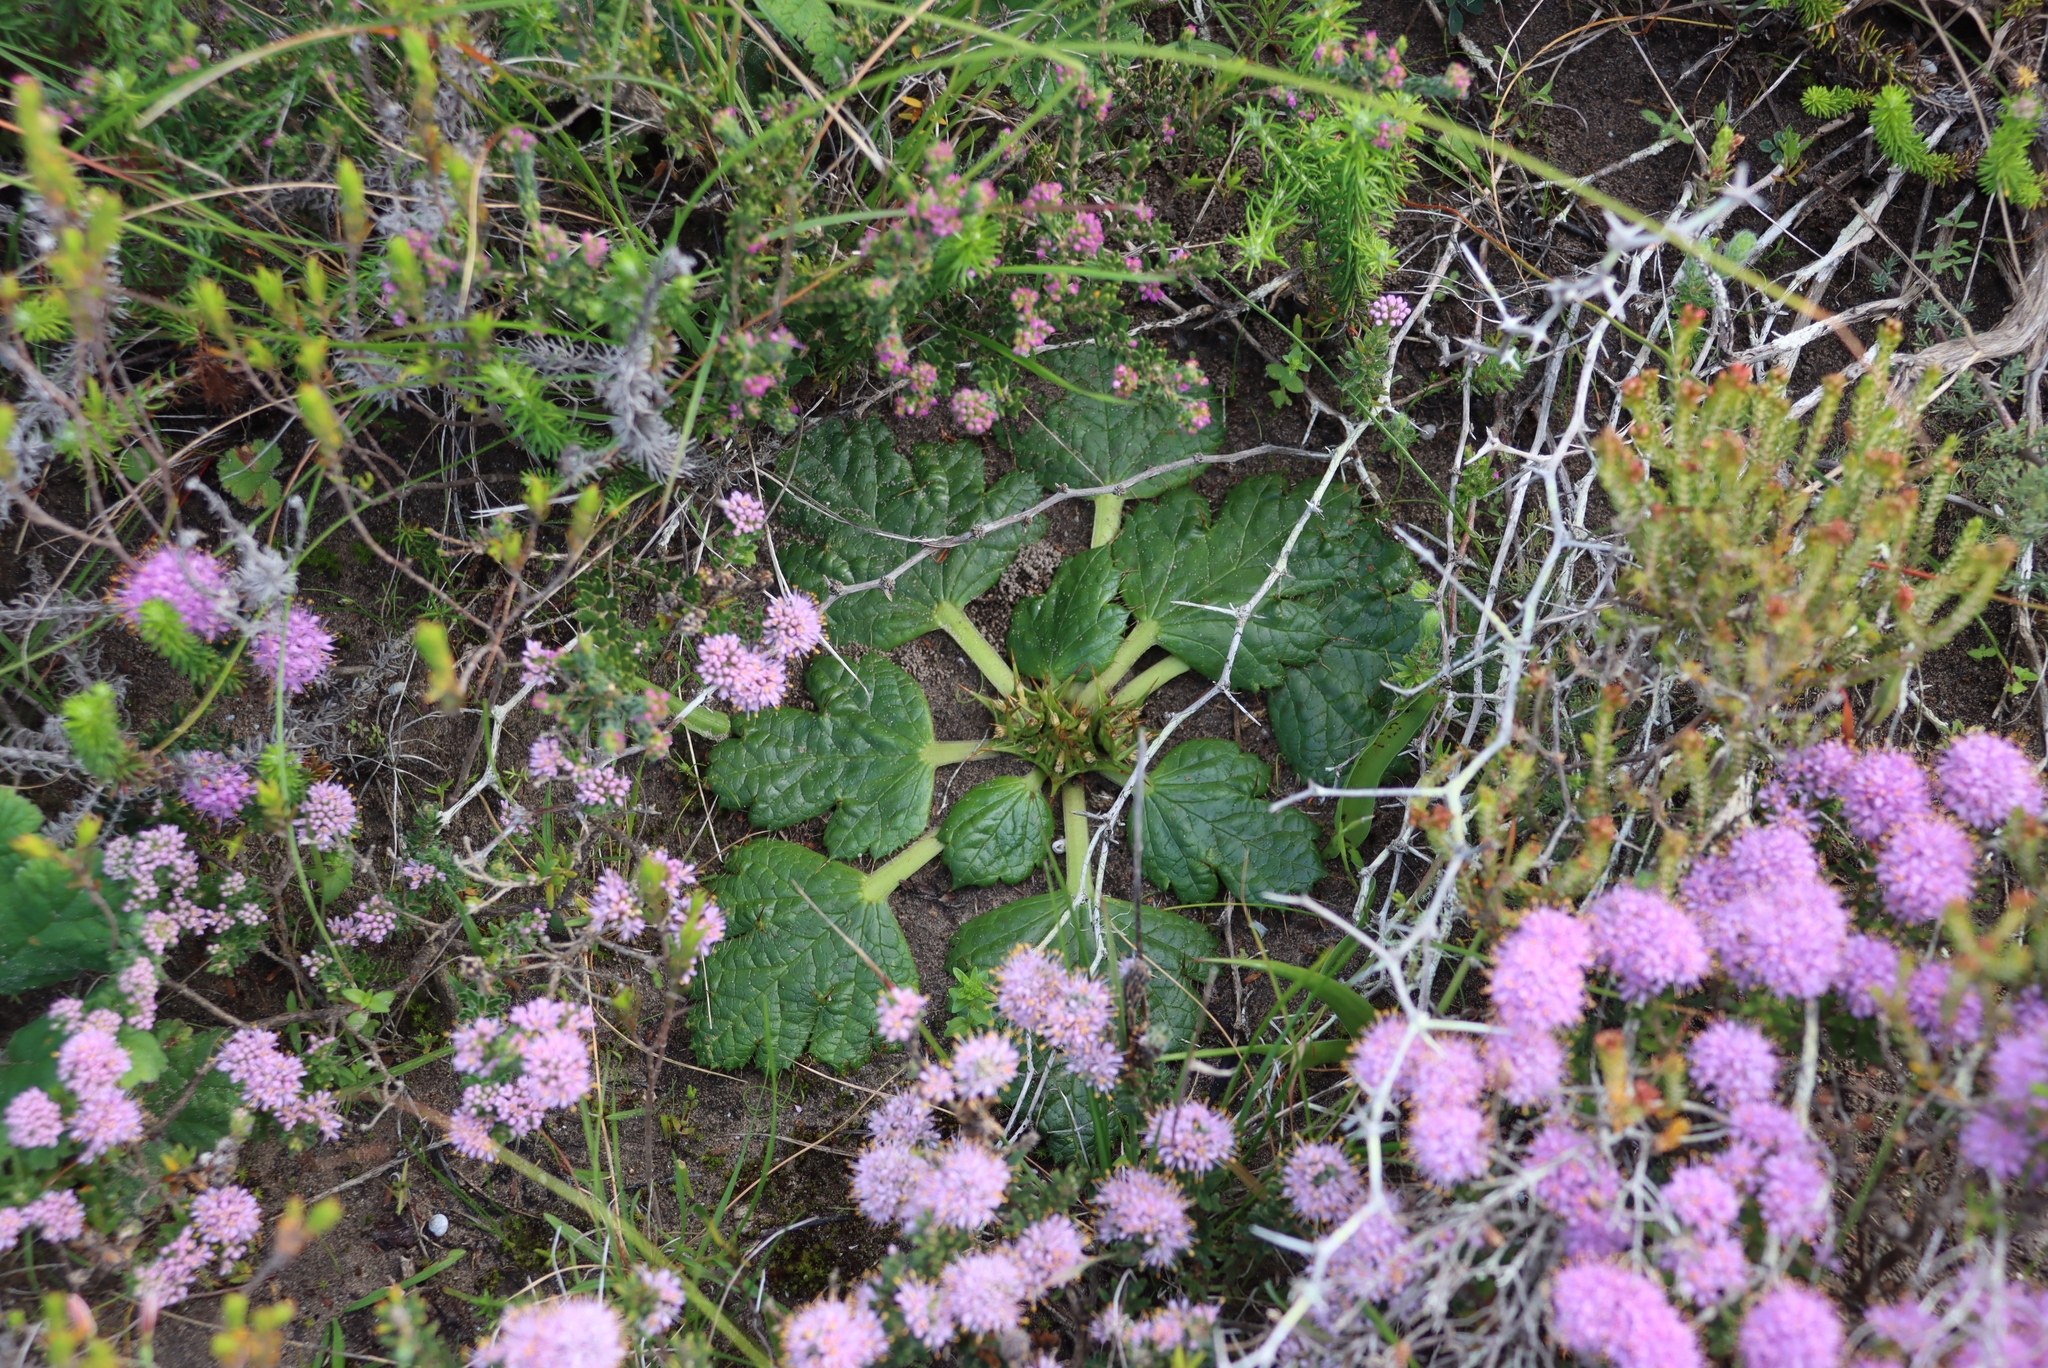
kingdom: Plantae
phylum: Tracheophyta
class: Magnoliopsida
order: Apiales
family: Apiaceae
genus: Arctopus
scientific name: Arctopus echinatus
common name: Platdoring
